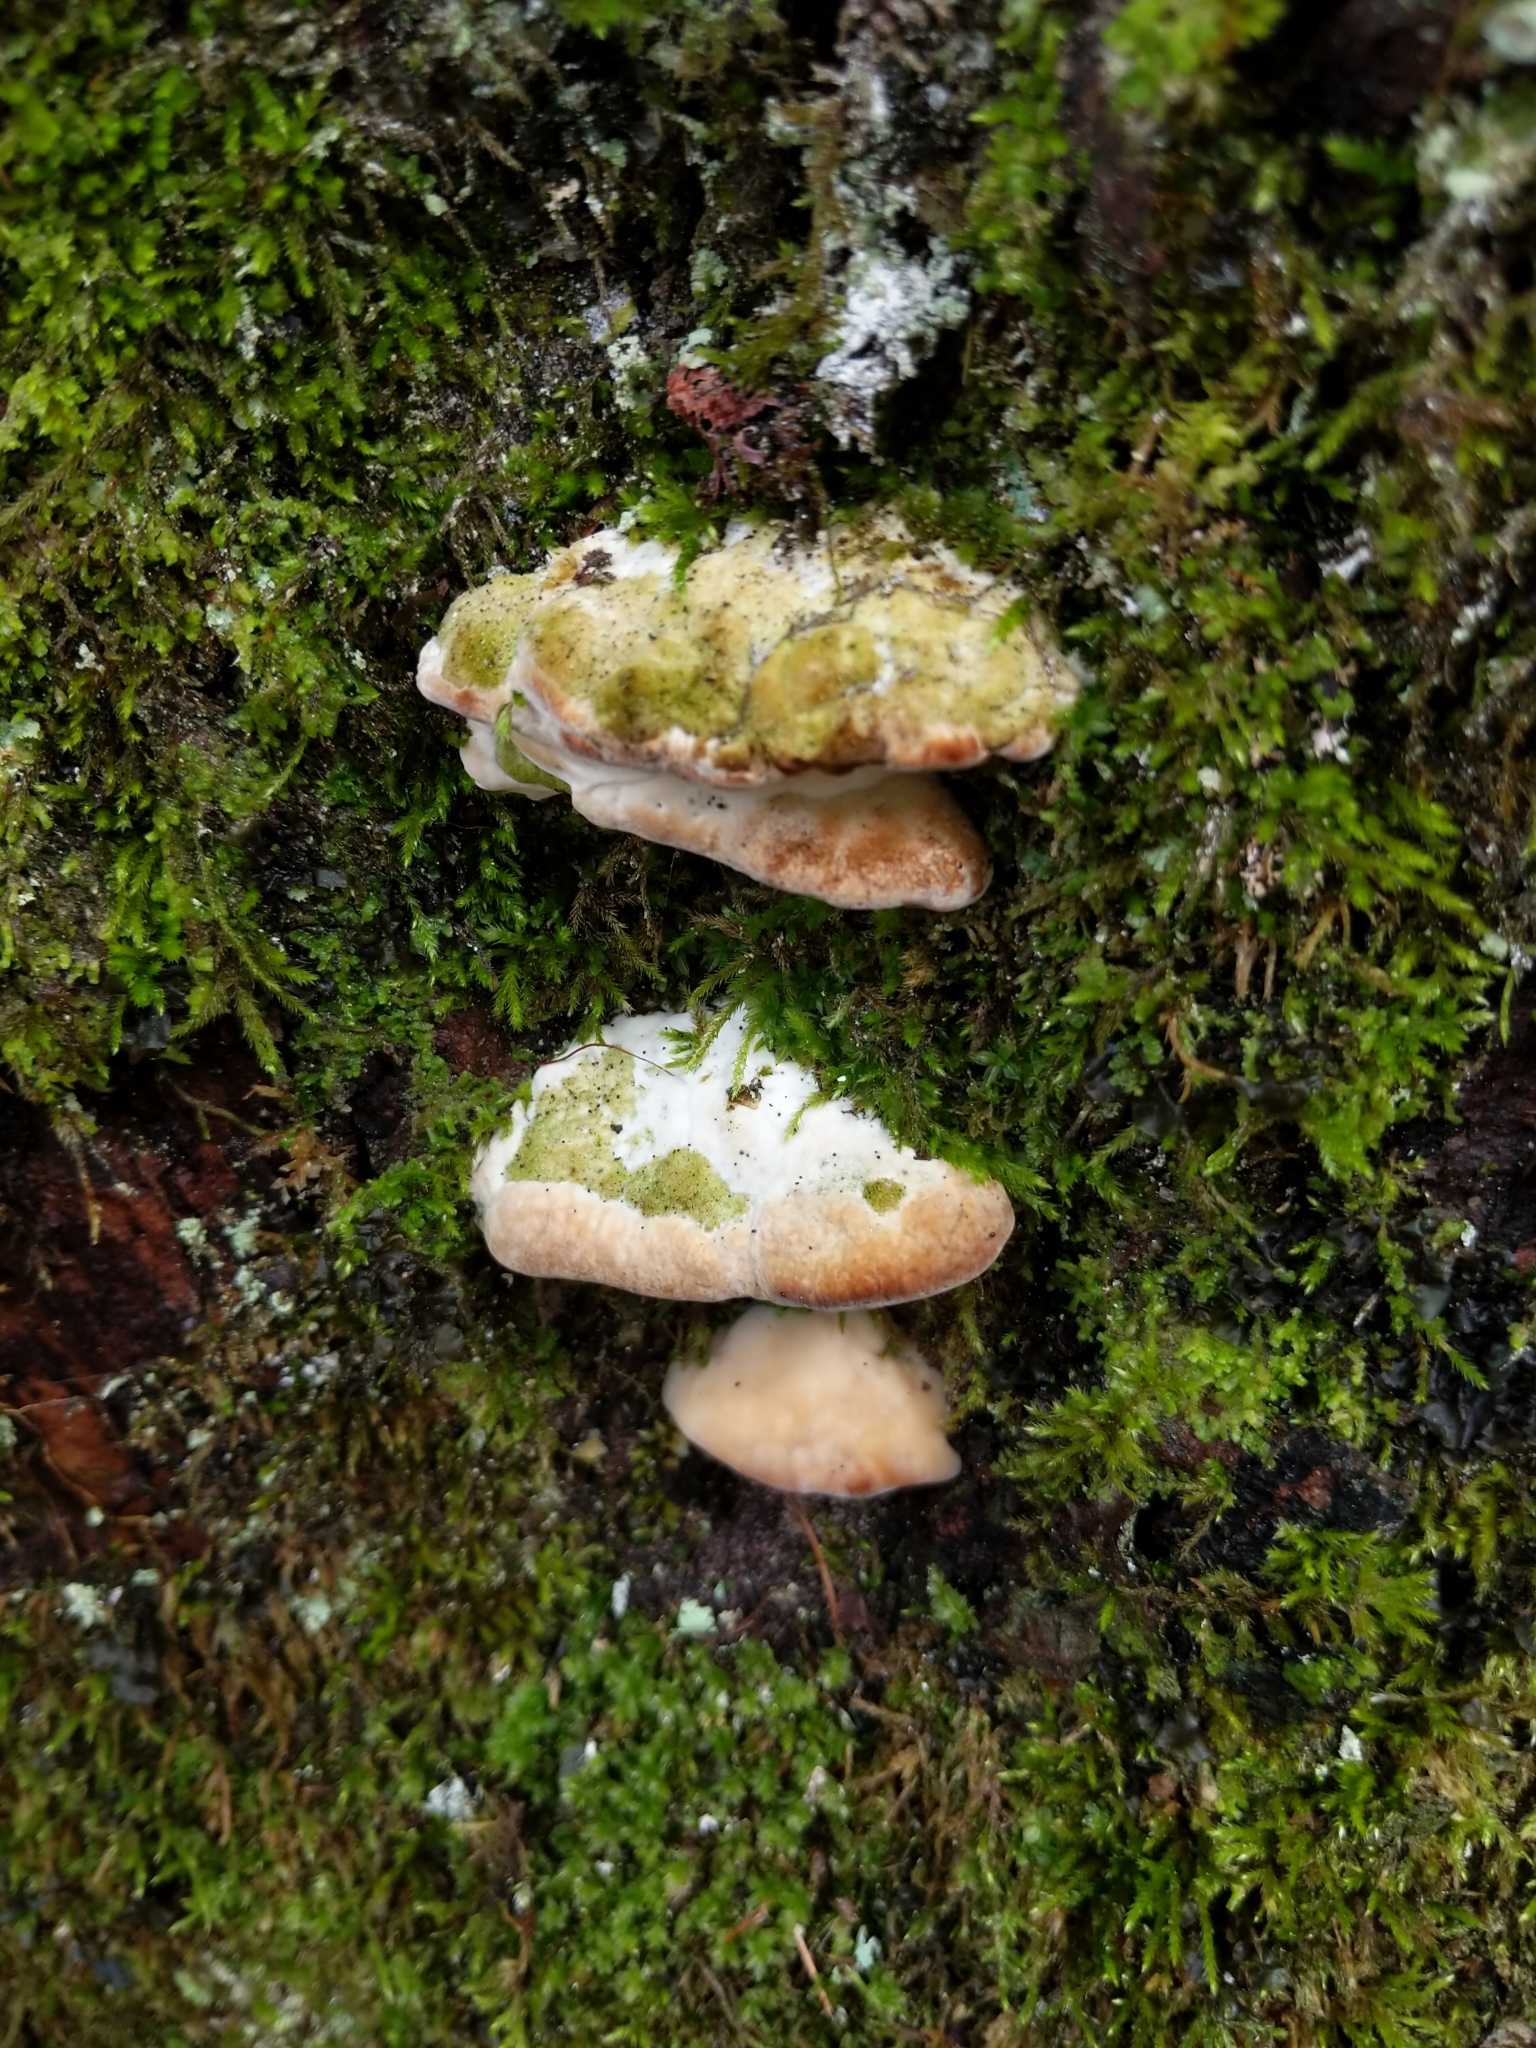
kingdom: Fungi
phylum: Basidiomycota
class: Agaricomycetes
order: Hymenochaetales
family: Oxyporaceae
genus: Oxyporus
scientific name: Oxyporus populinus
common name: Poplar bracket
